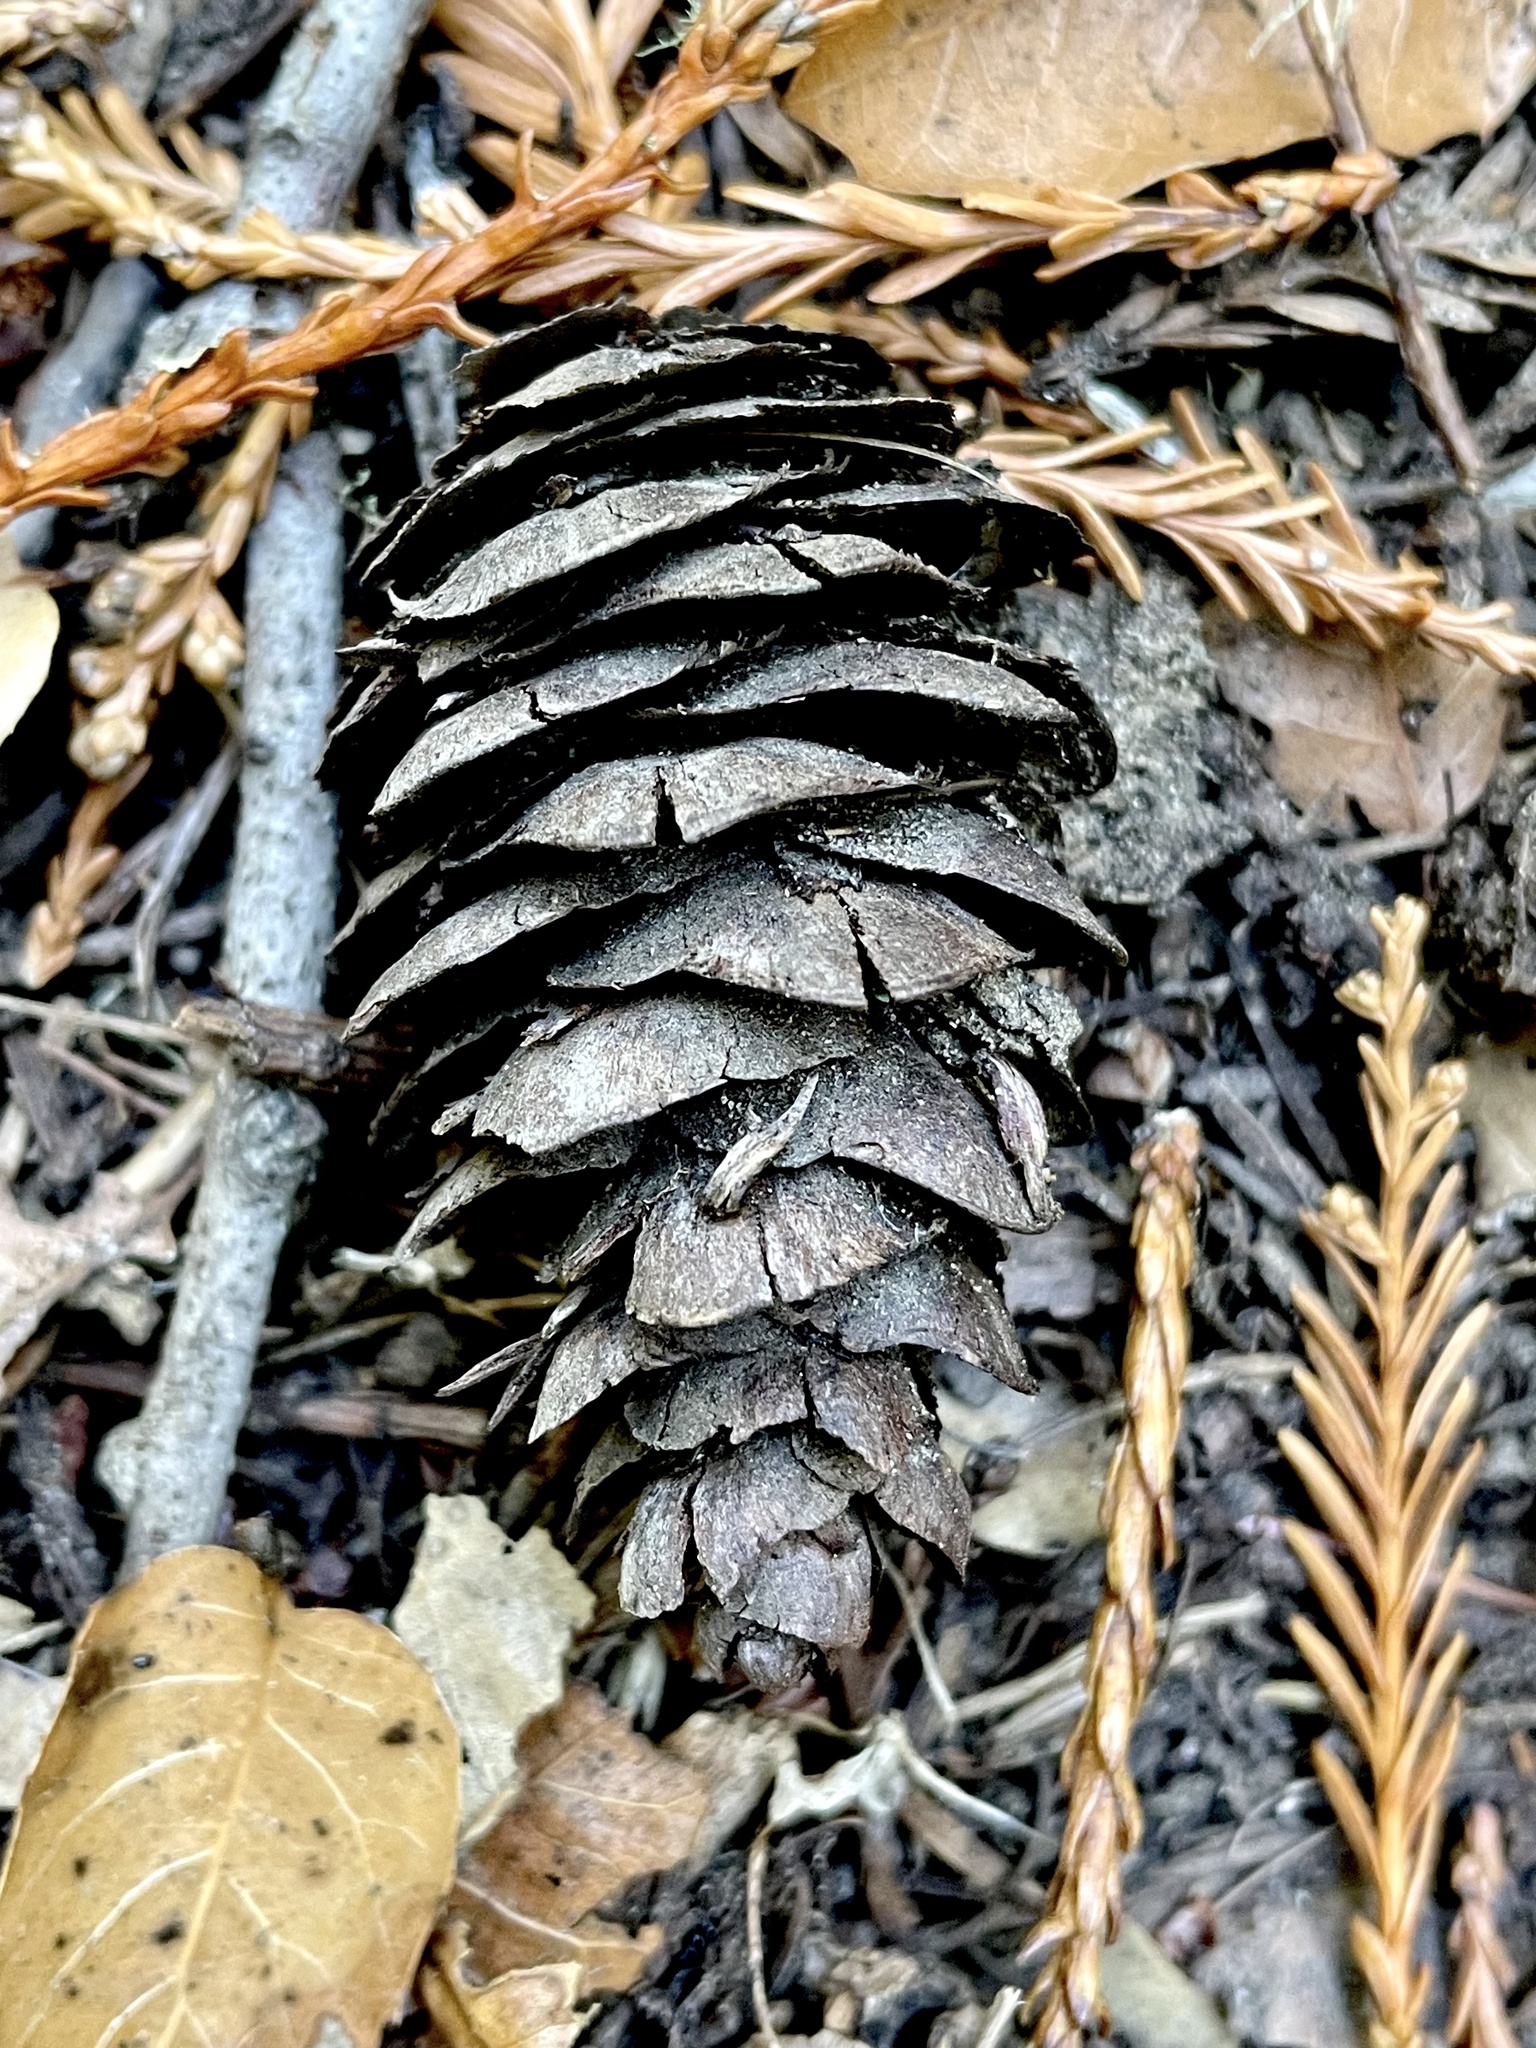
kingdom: Plantae
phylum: Tracheophyta
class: Pinopsida
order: Pinales
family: Pinaceae
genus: Pseudotsuga
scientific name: Pseudotsuga menziesii
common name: Douglas fir
